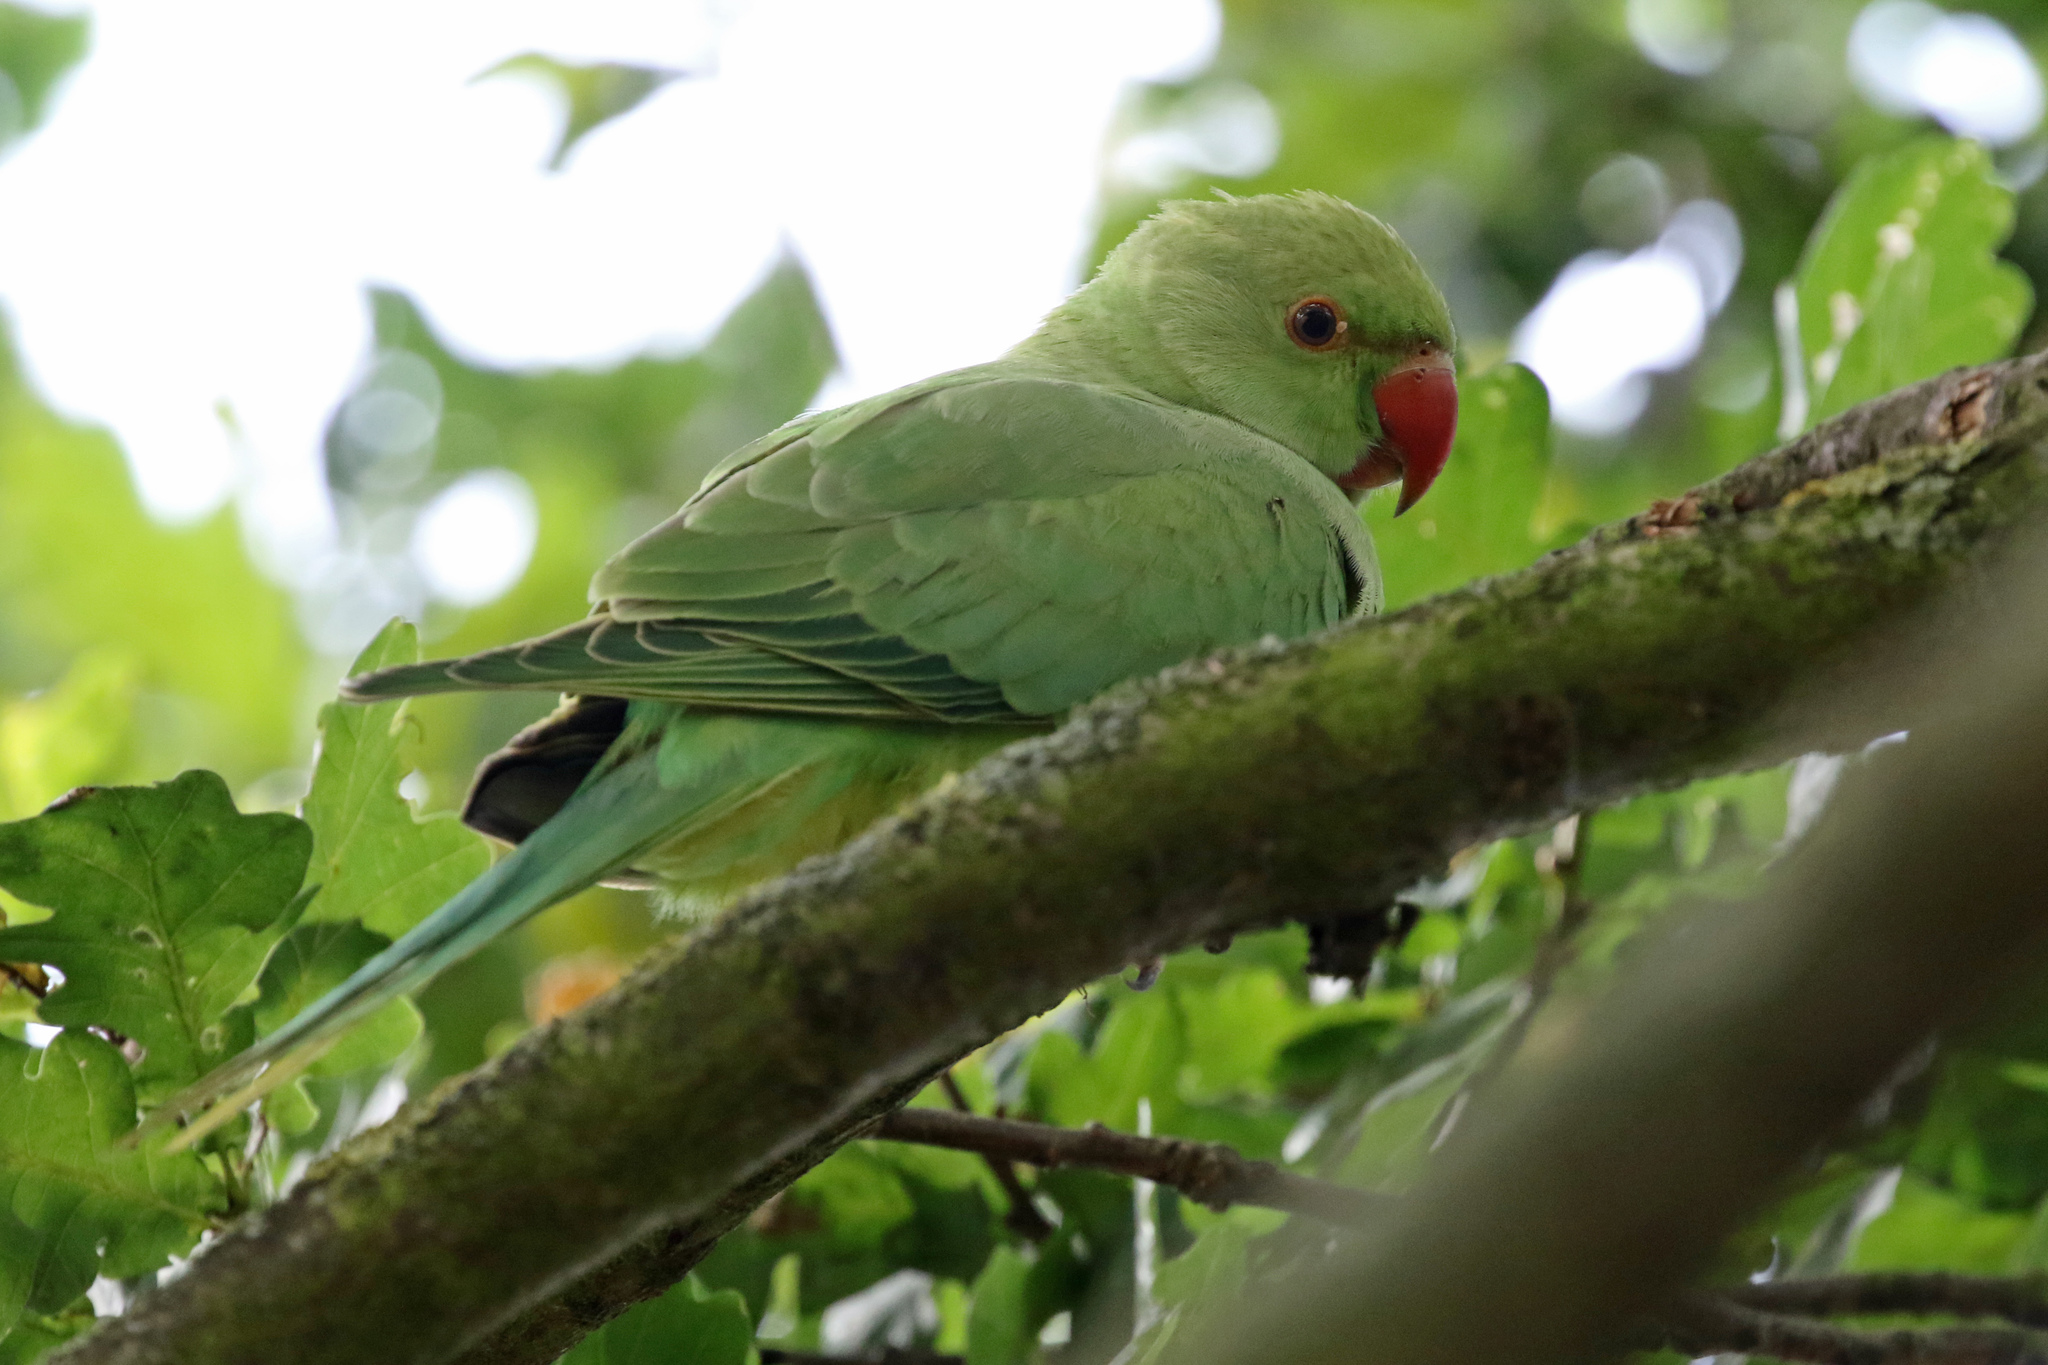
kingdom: Animalia
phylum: Chordata
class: Aves
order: Psittaciformes
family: Psittacidae
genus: Psittacula
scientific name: Psittacula krameri
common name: Rose-ringed parakeet
